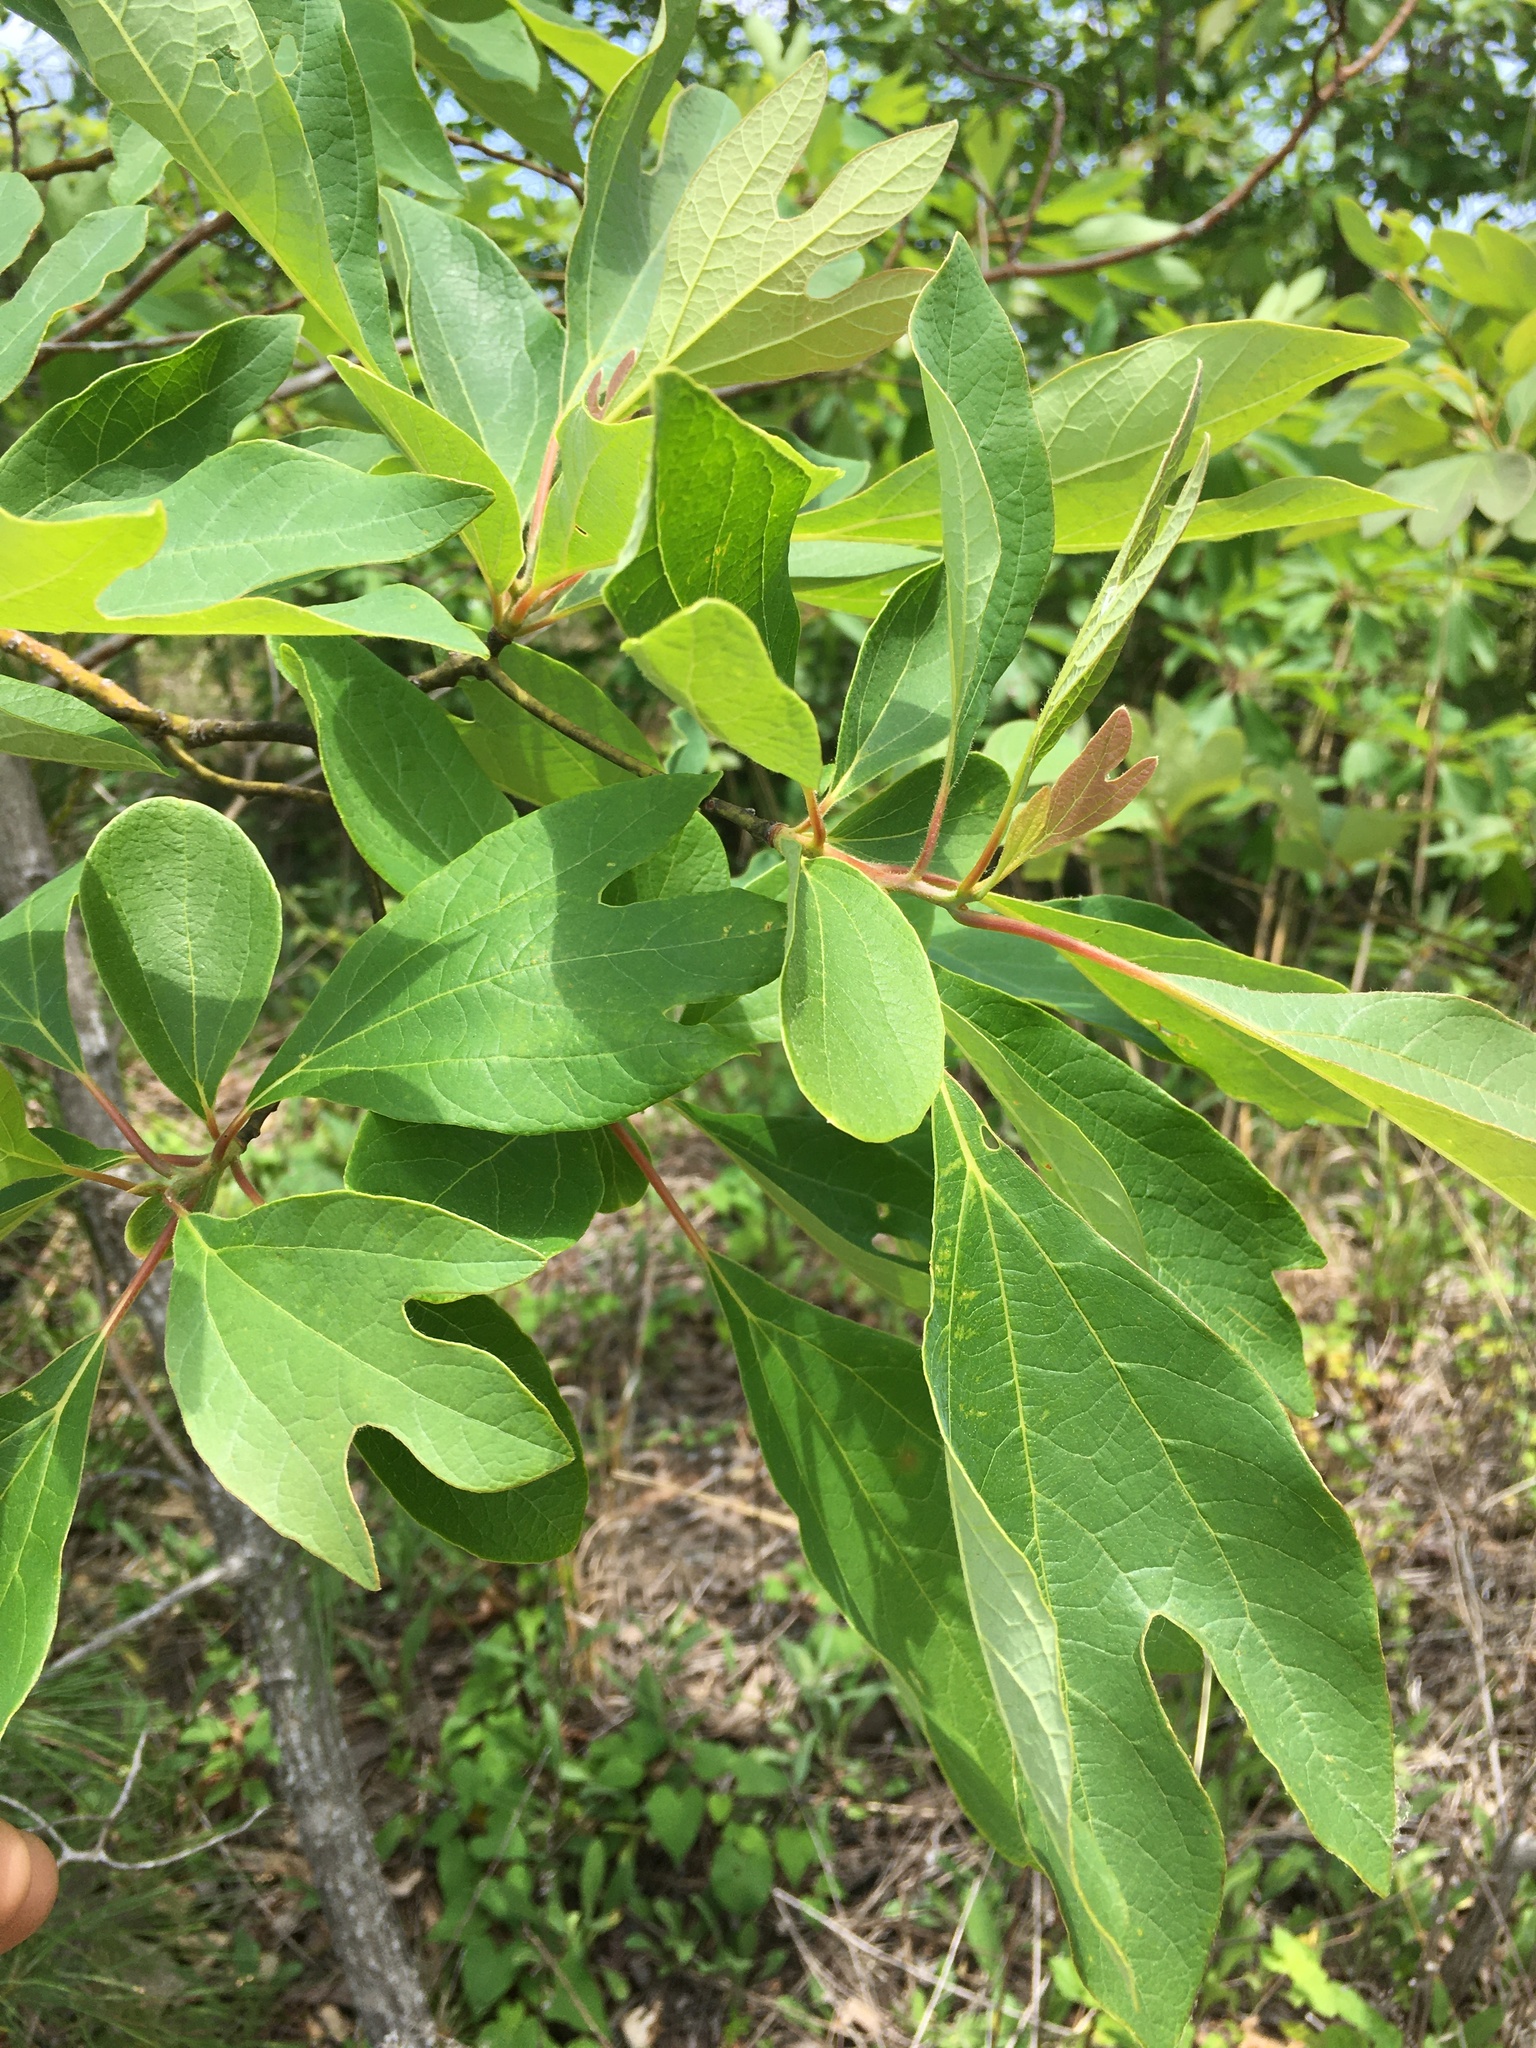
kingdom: Plantae
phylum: Tracheophyta
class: Magnoliopsida
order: Laurales
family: Lauraceae
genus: Sassafras
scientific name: Sassafras albidum
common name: Sassafras
